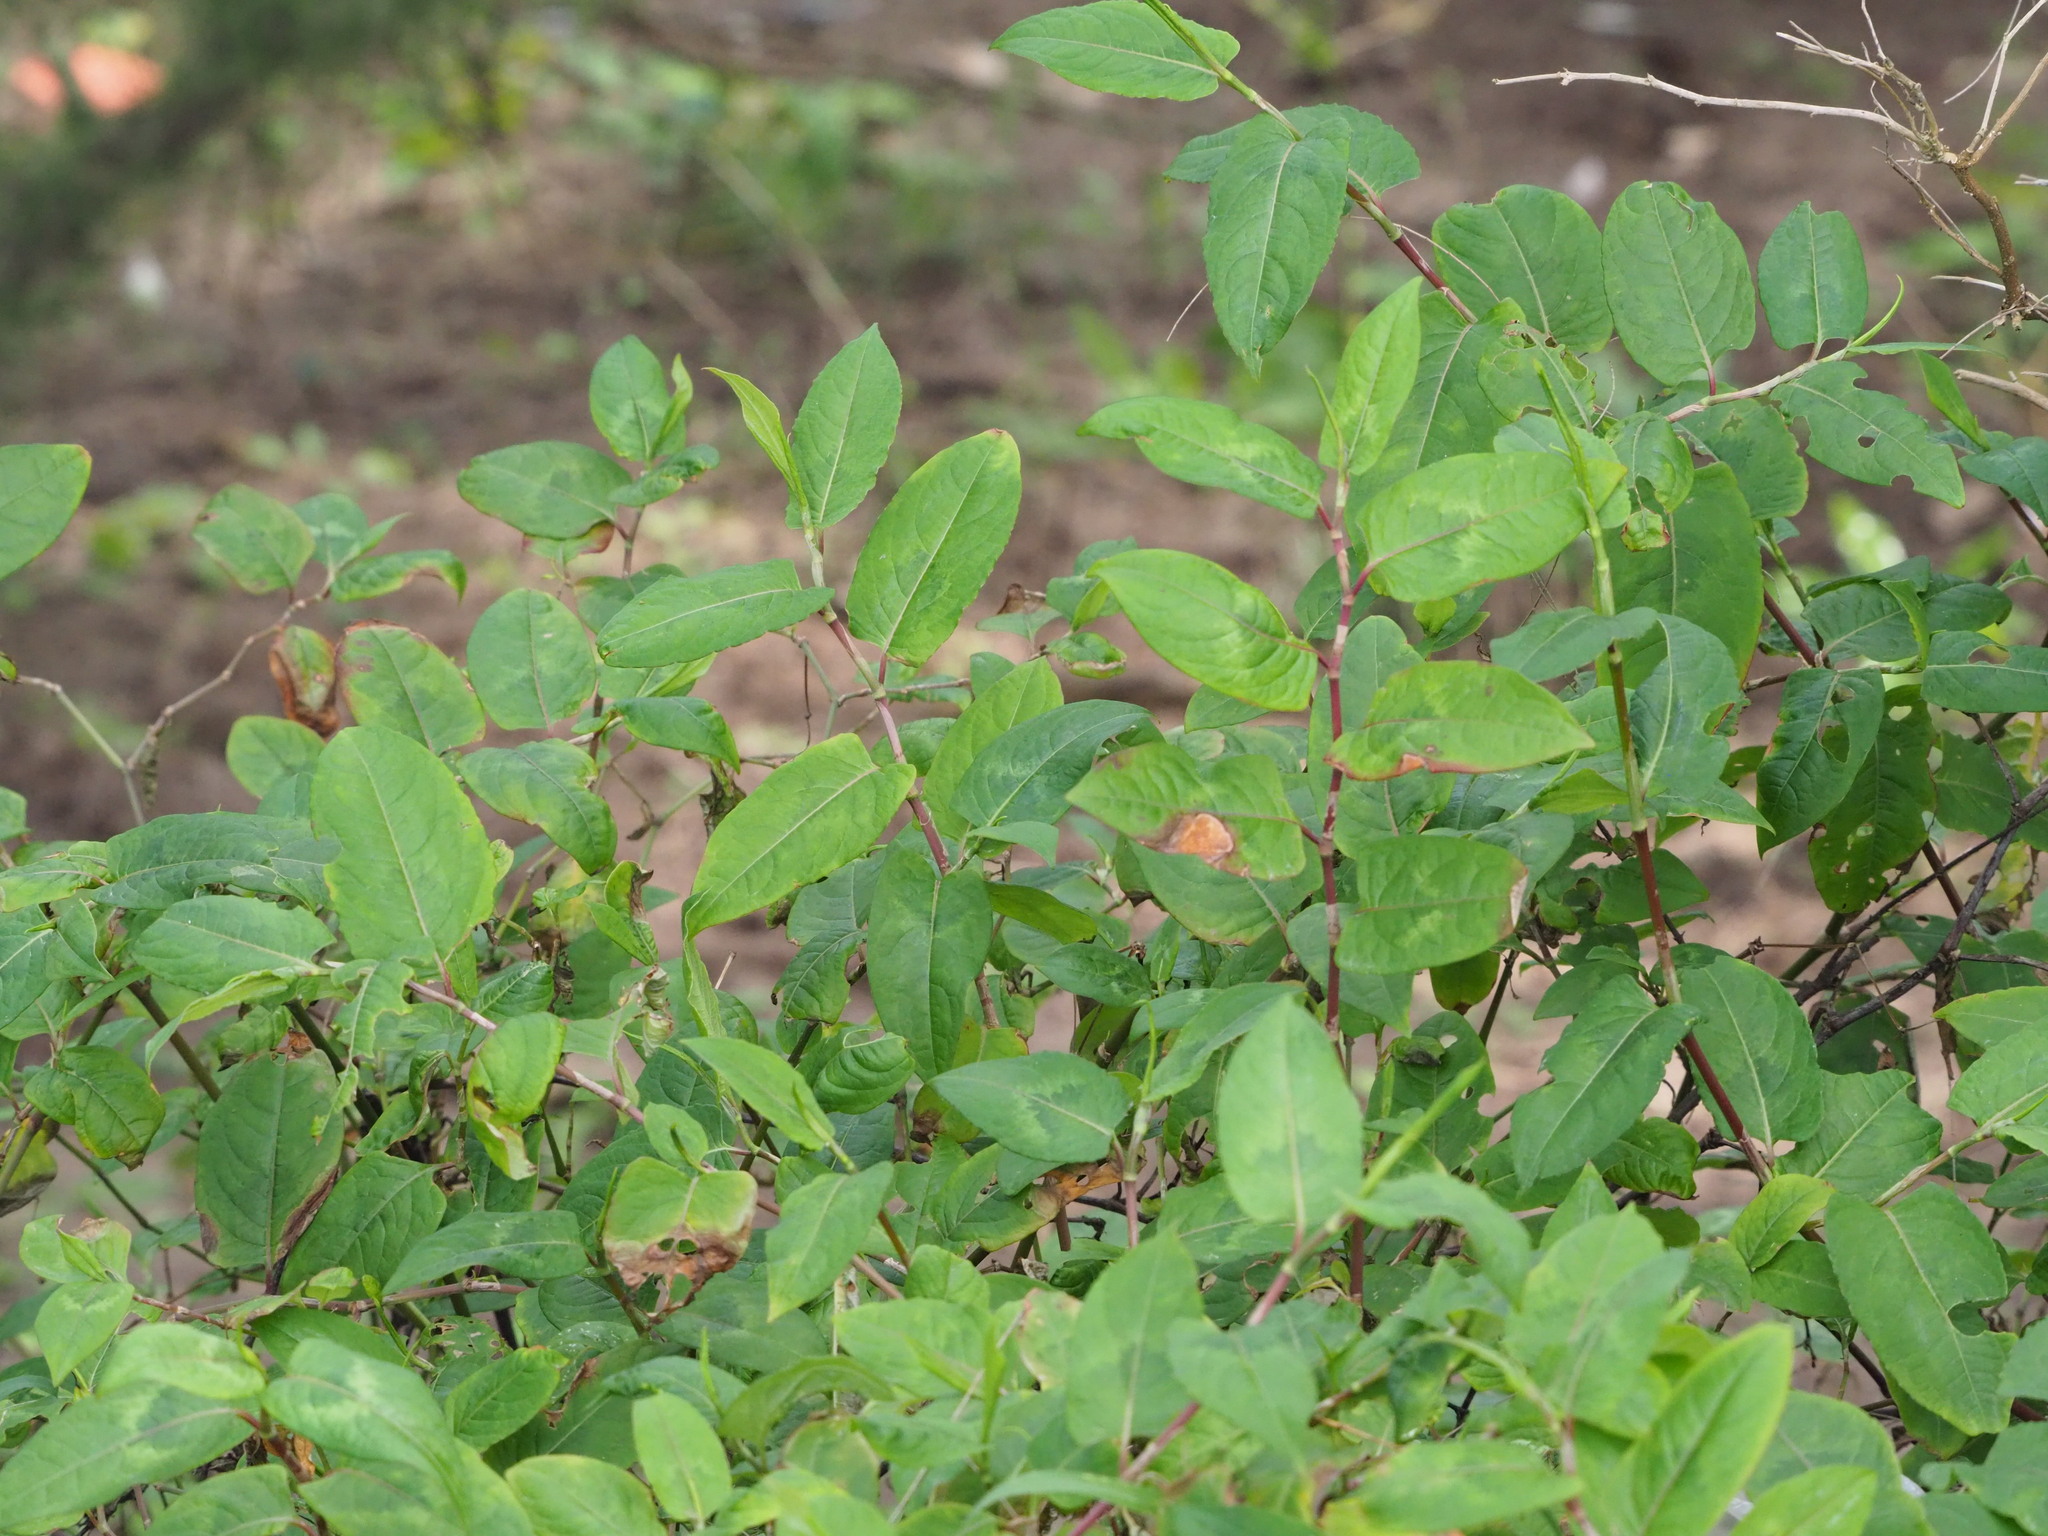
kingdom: Plantae
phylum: Tracheophyta
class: Magnoliopsida
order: Caryophyllales
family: Polygonaceae
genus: Persicaria
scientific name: Persicaria chinensis
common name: Chinese knotweed
